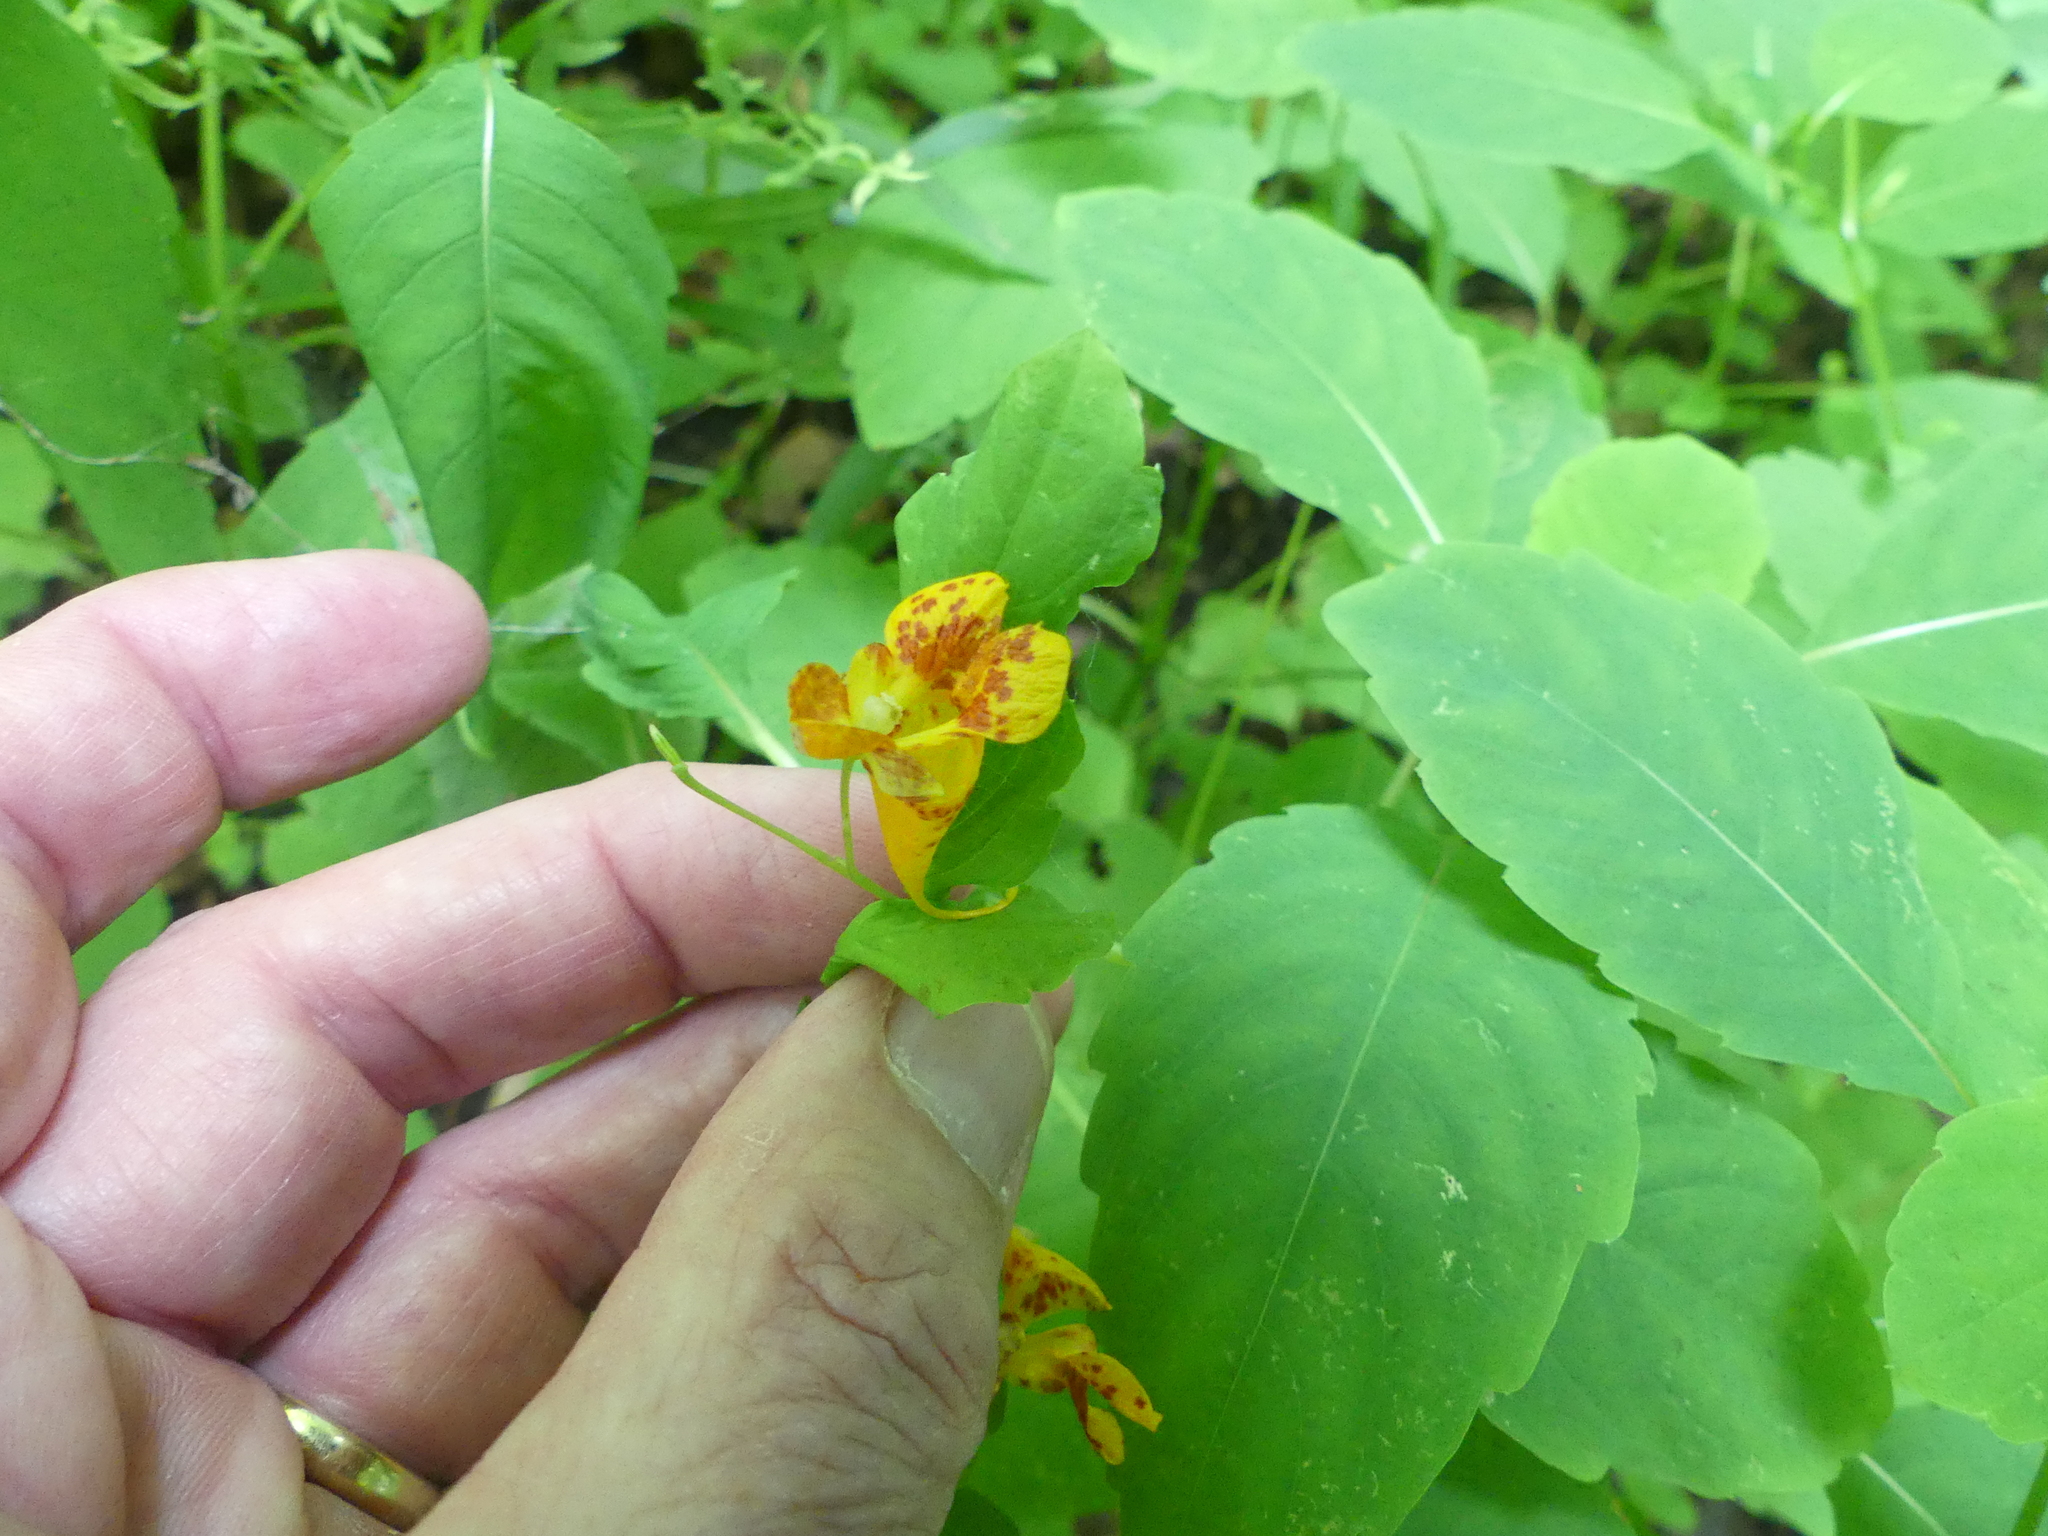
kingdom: Plantae
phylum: Tracheophyta
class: Magnoliopsida
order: Ericales
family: Balsaminaceae
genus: Impatiens
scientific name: Impatiens capensis
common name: Orange balsam
